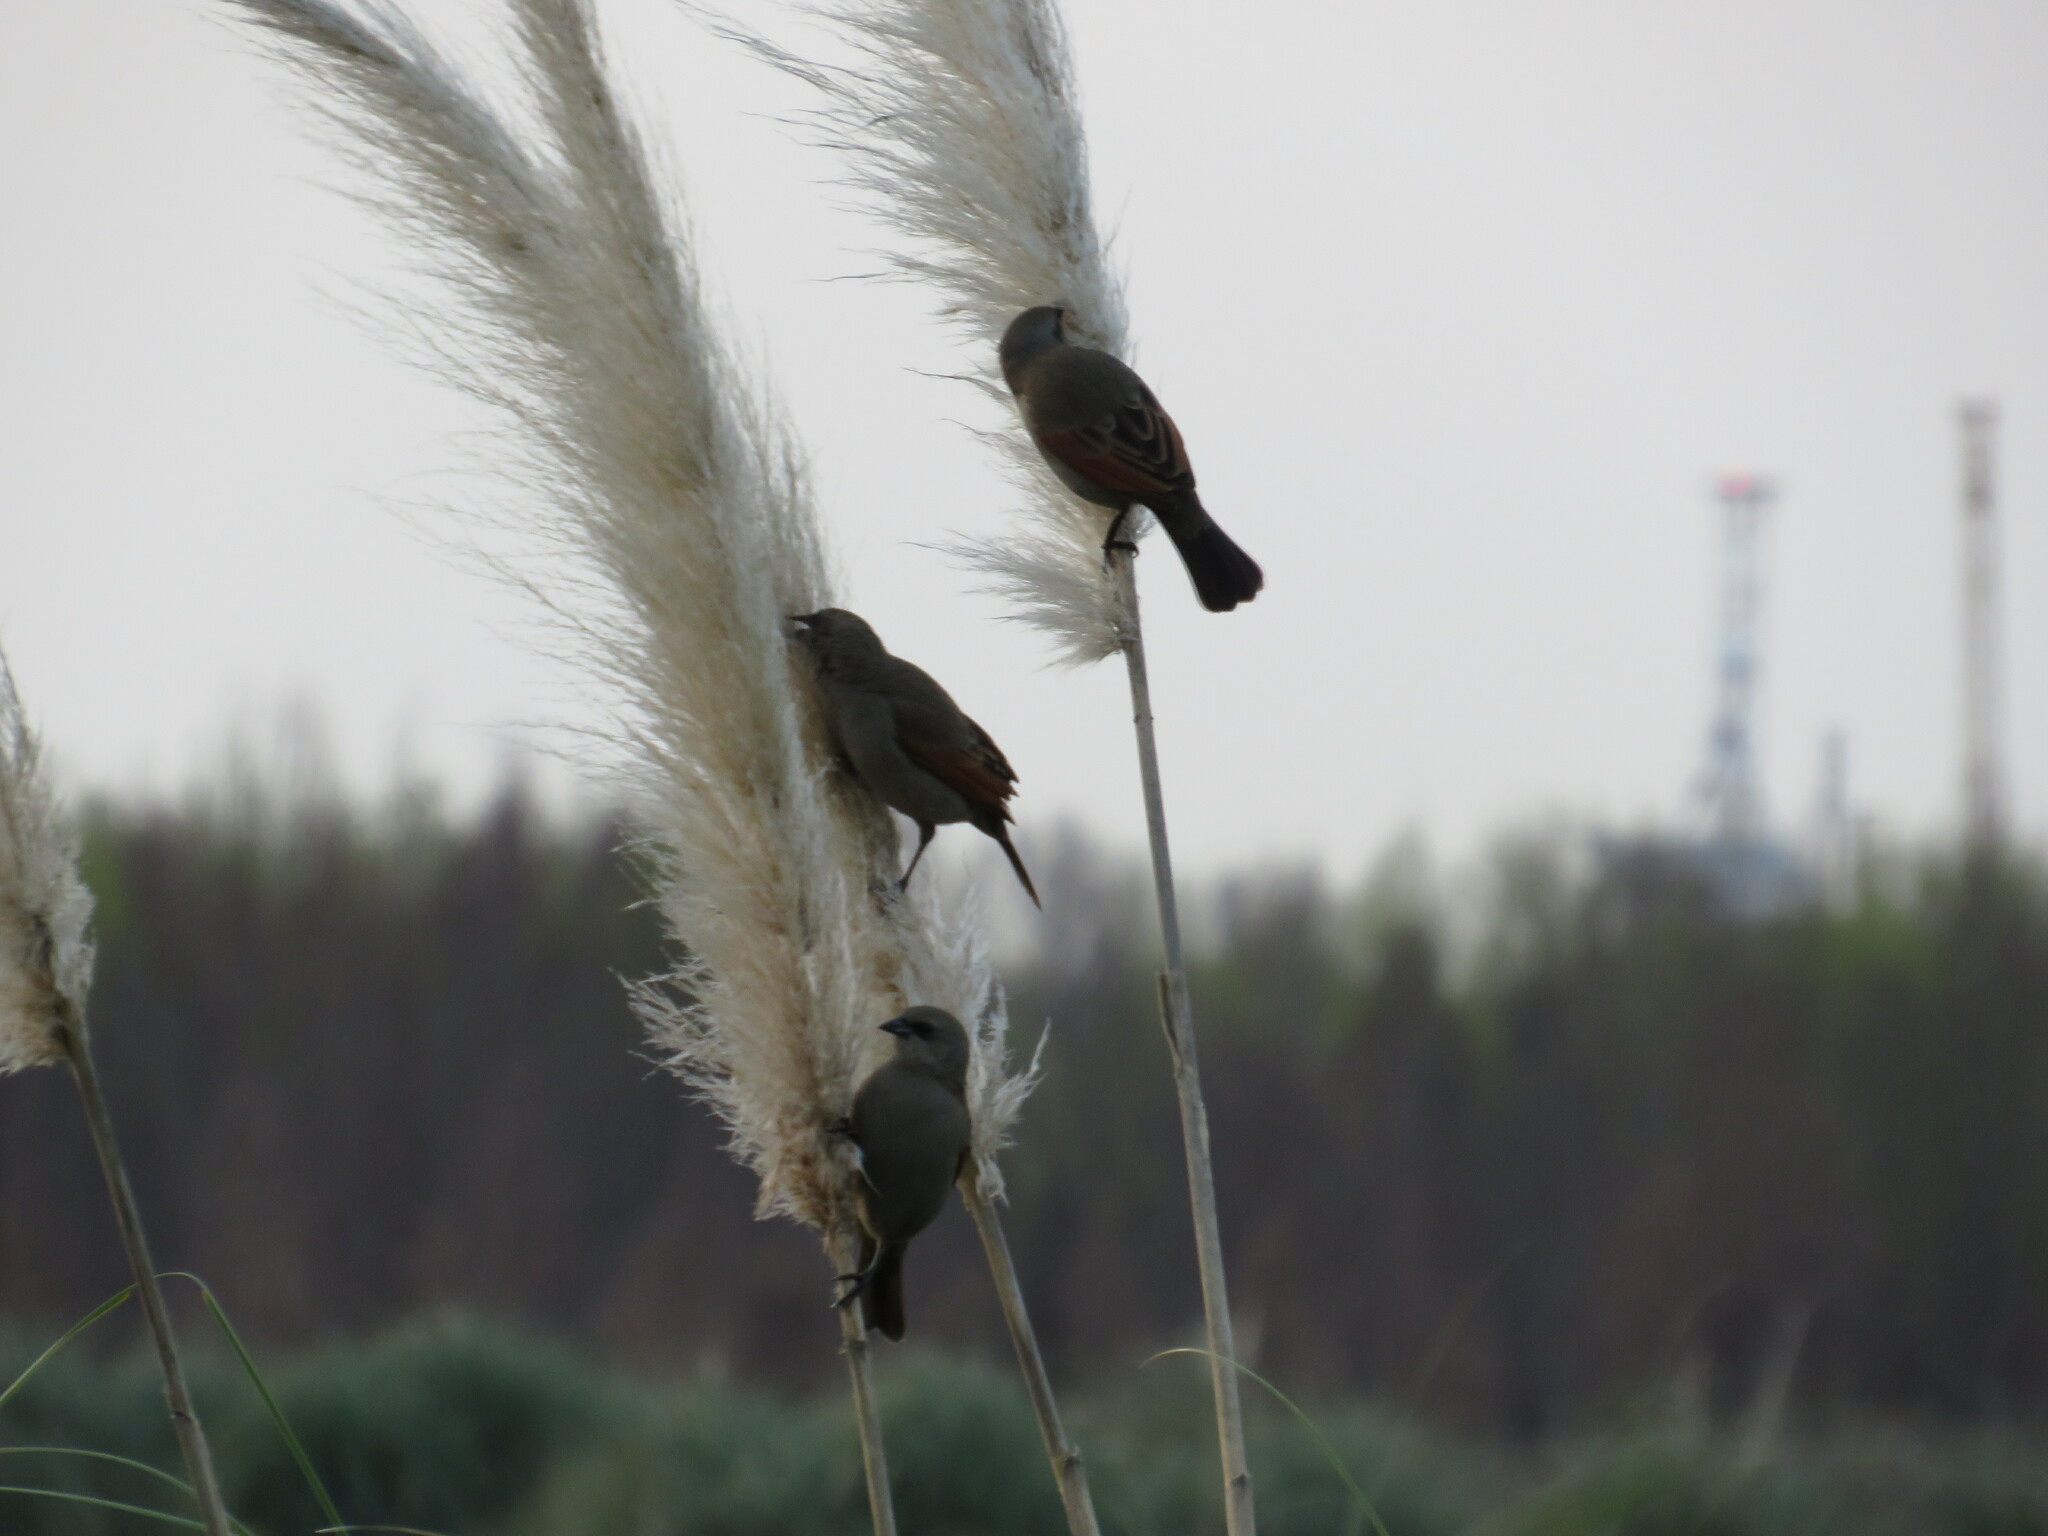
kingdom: Animalia
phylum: Chordata
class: Aves
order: Passeriformes
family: Icteridae
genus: Agelaioides
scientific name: Agelaioides badius
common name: Baywing
